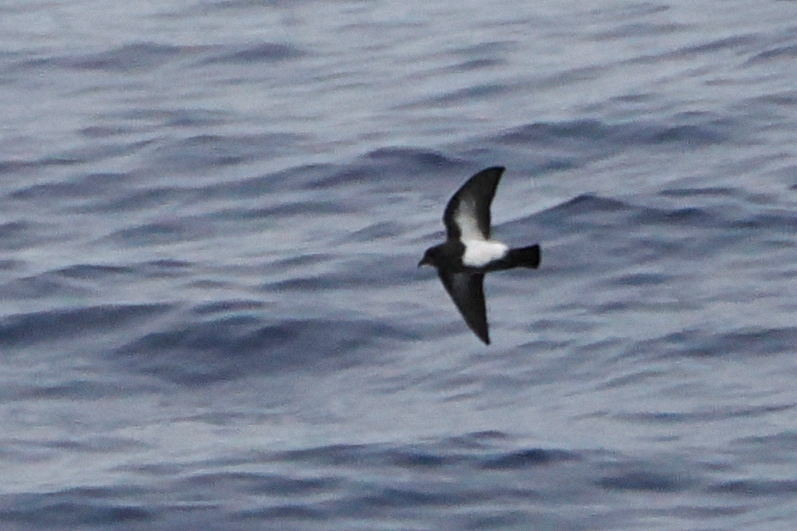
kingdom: Animalia
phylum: Chordata
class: Aves
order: Procellariiformes
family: Hydrobatidae
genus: Fregetta
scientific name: Fregetta tropica
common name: Black-bellied storm-petrel
